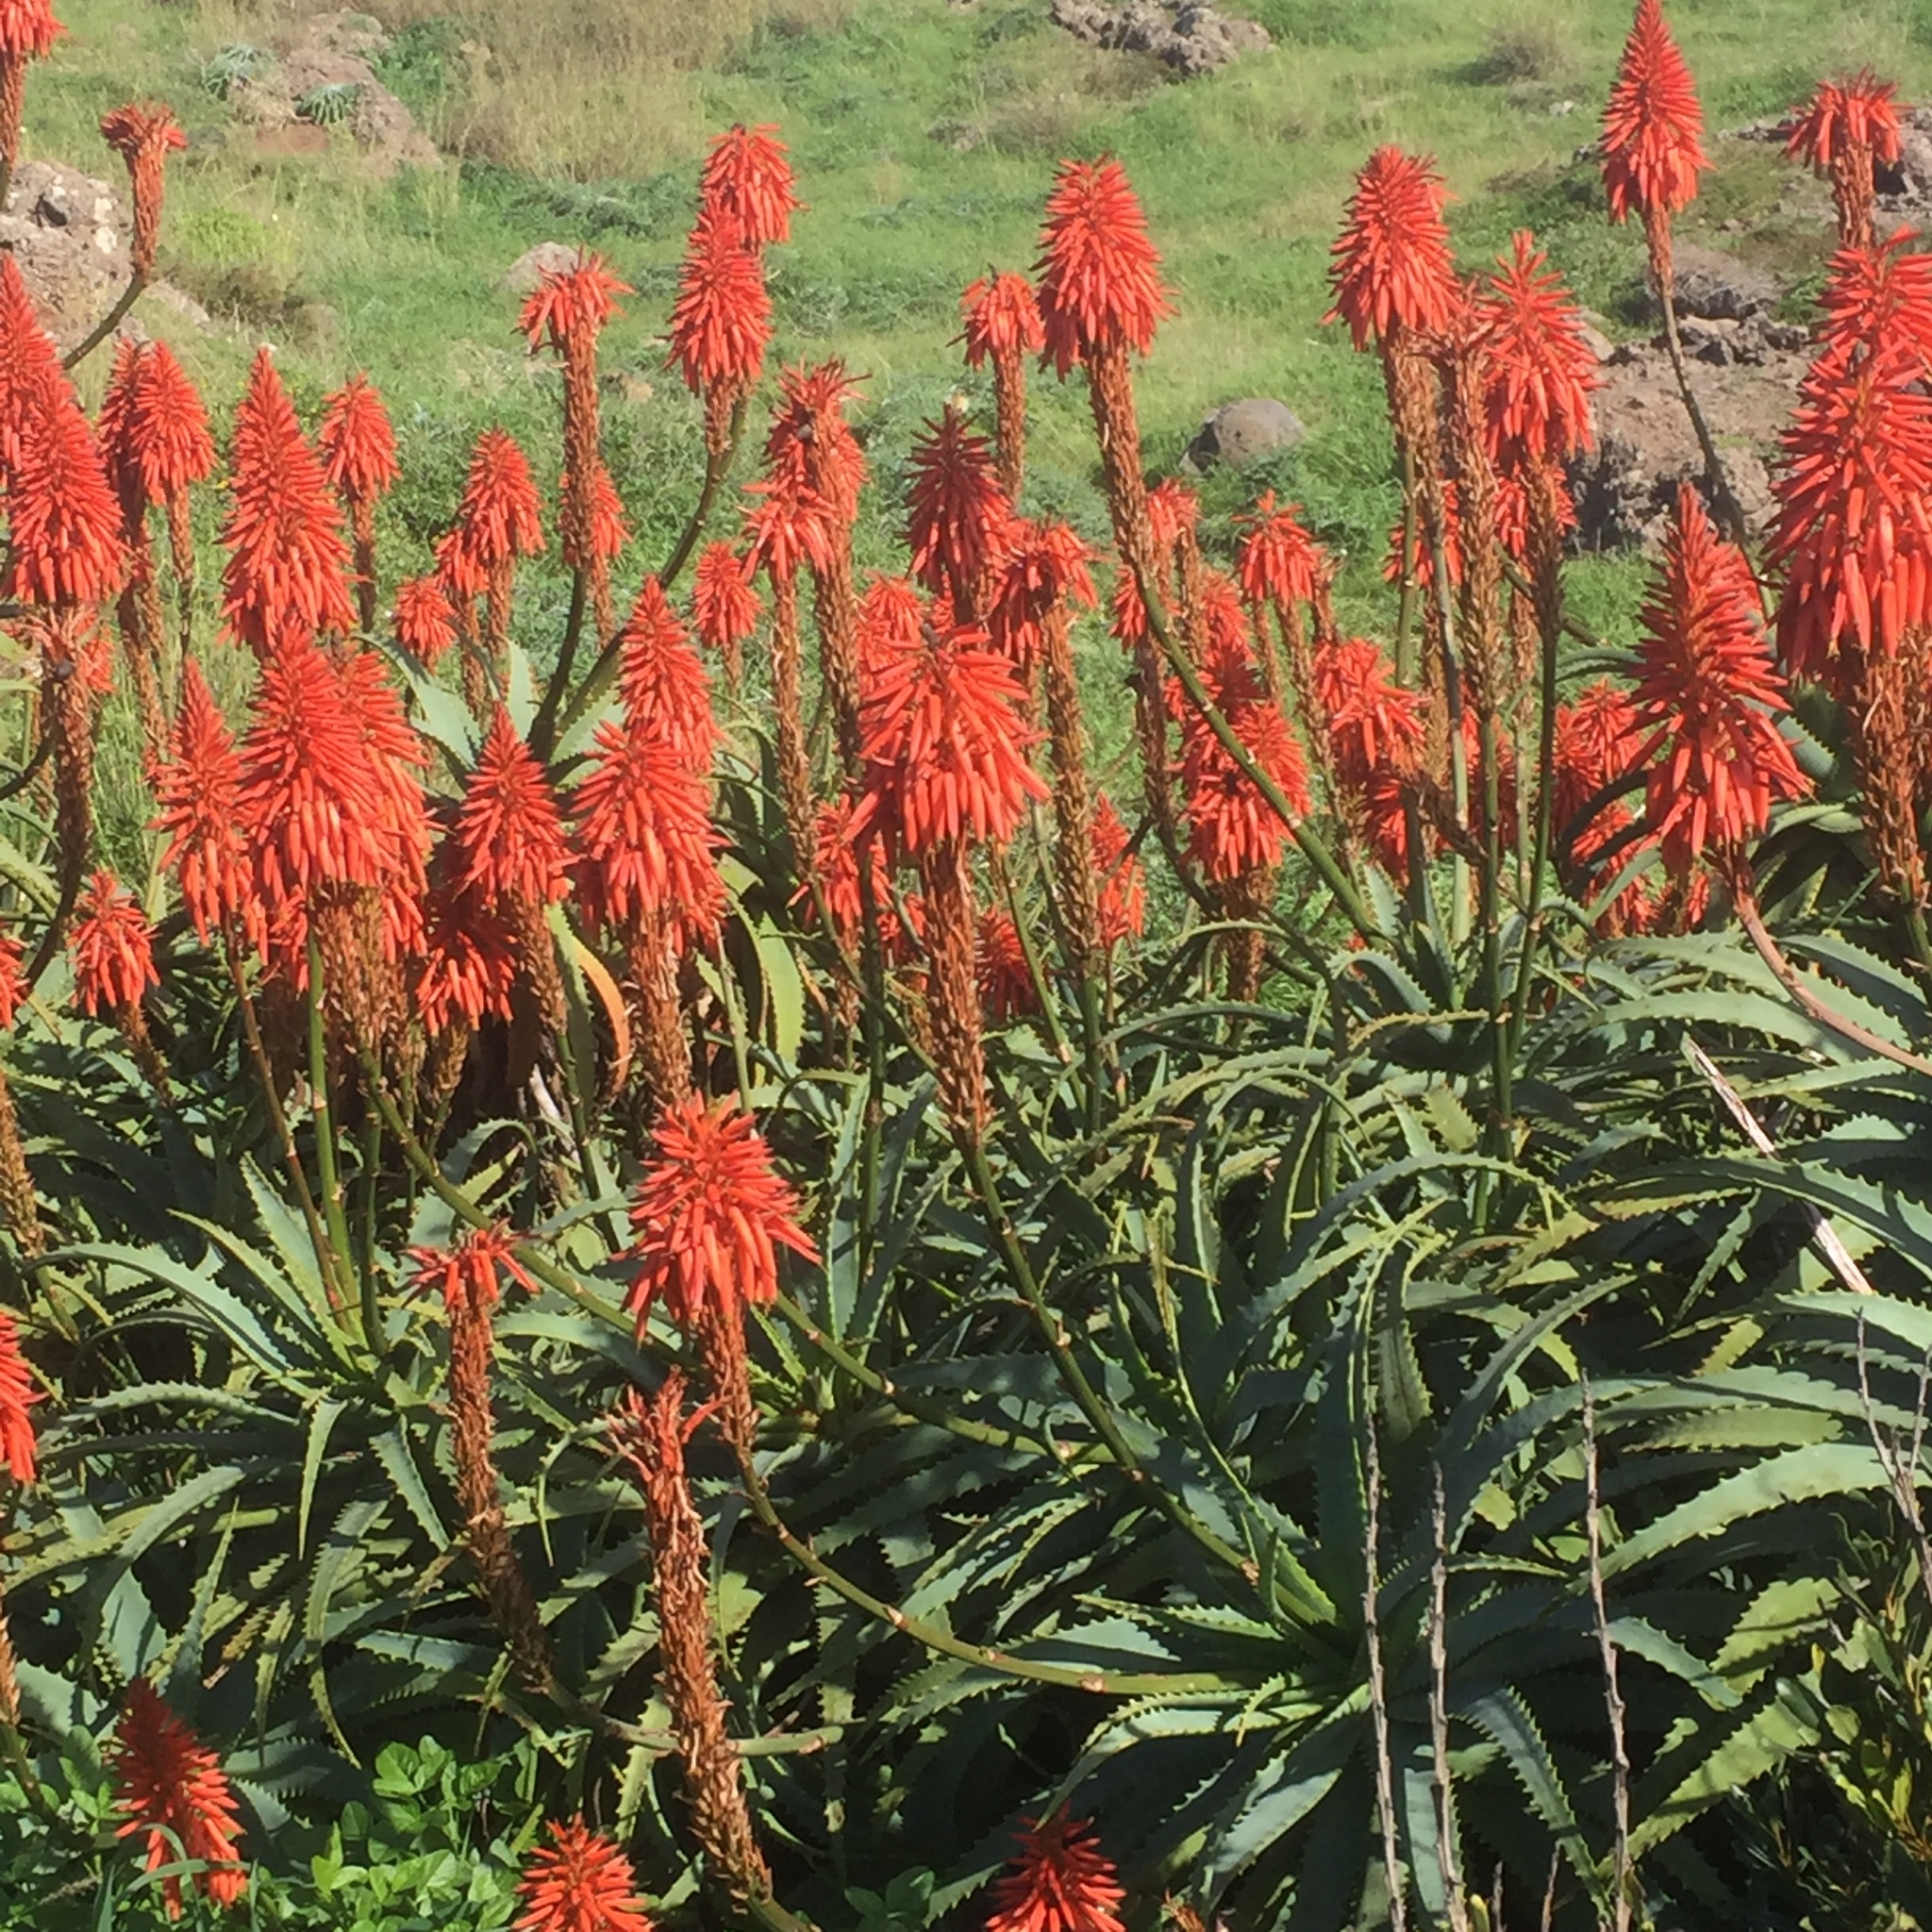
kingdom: Plantae
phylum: Tracheophyta
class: Liliopsida
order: Asparagales
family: Asphodelaceae
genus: Aloe
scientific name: Aloe arborescens
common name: Candelabra aloe
